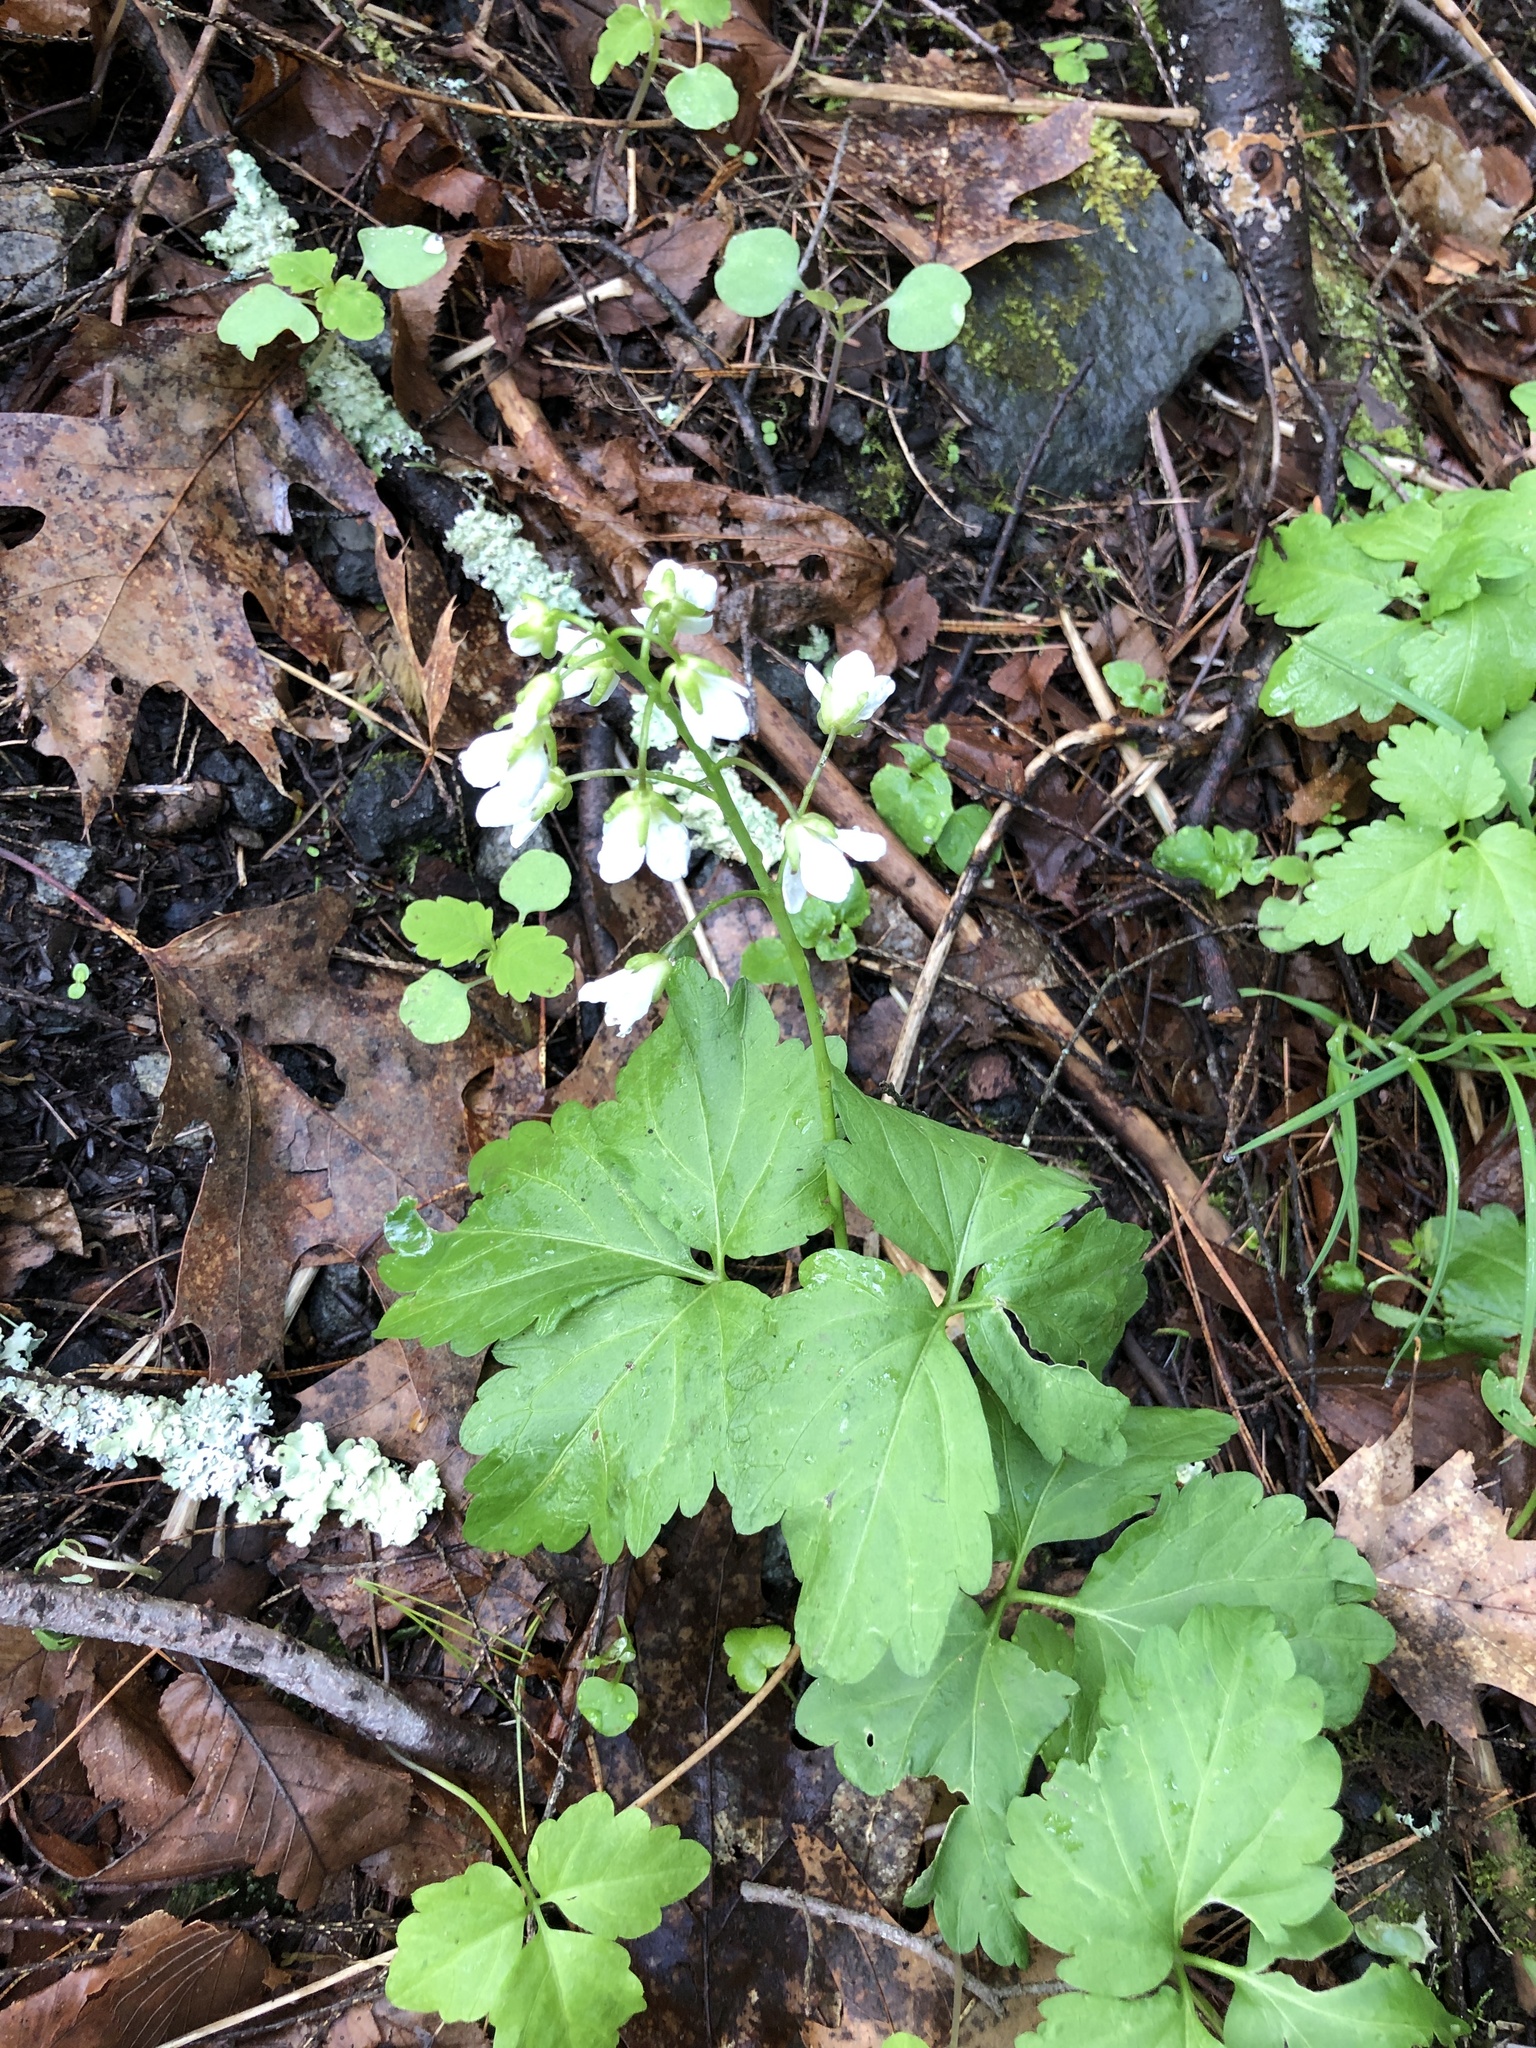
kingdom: Plantae
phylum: Tracheophyta
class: Magnoliopsida
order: Brassicales
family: Brassicaceae
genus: Cardamine
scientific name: Cardamine diphylla
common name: Broad-leaved toothwort
